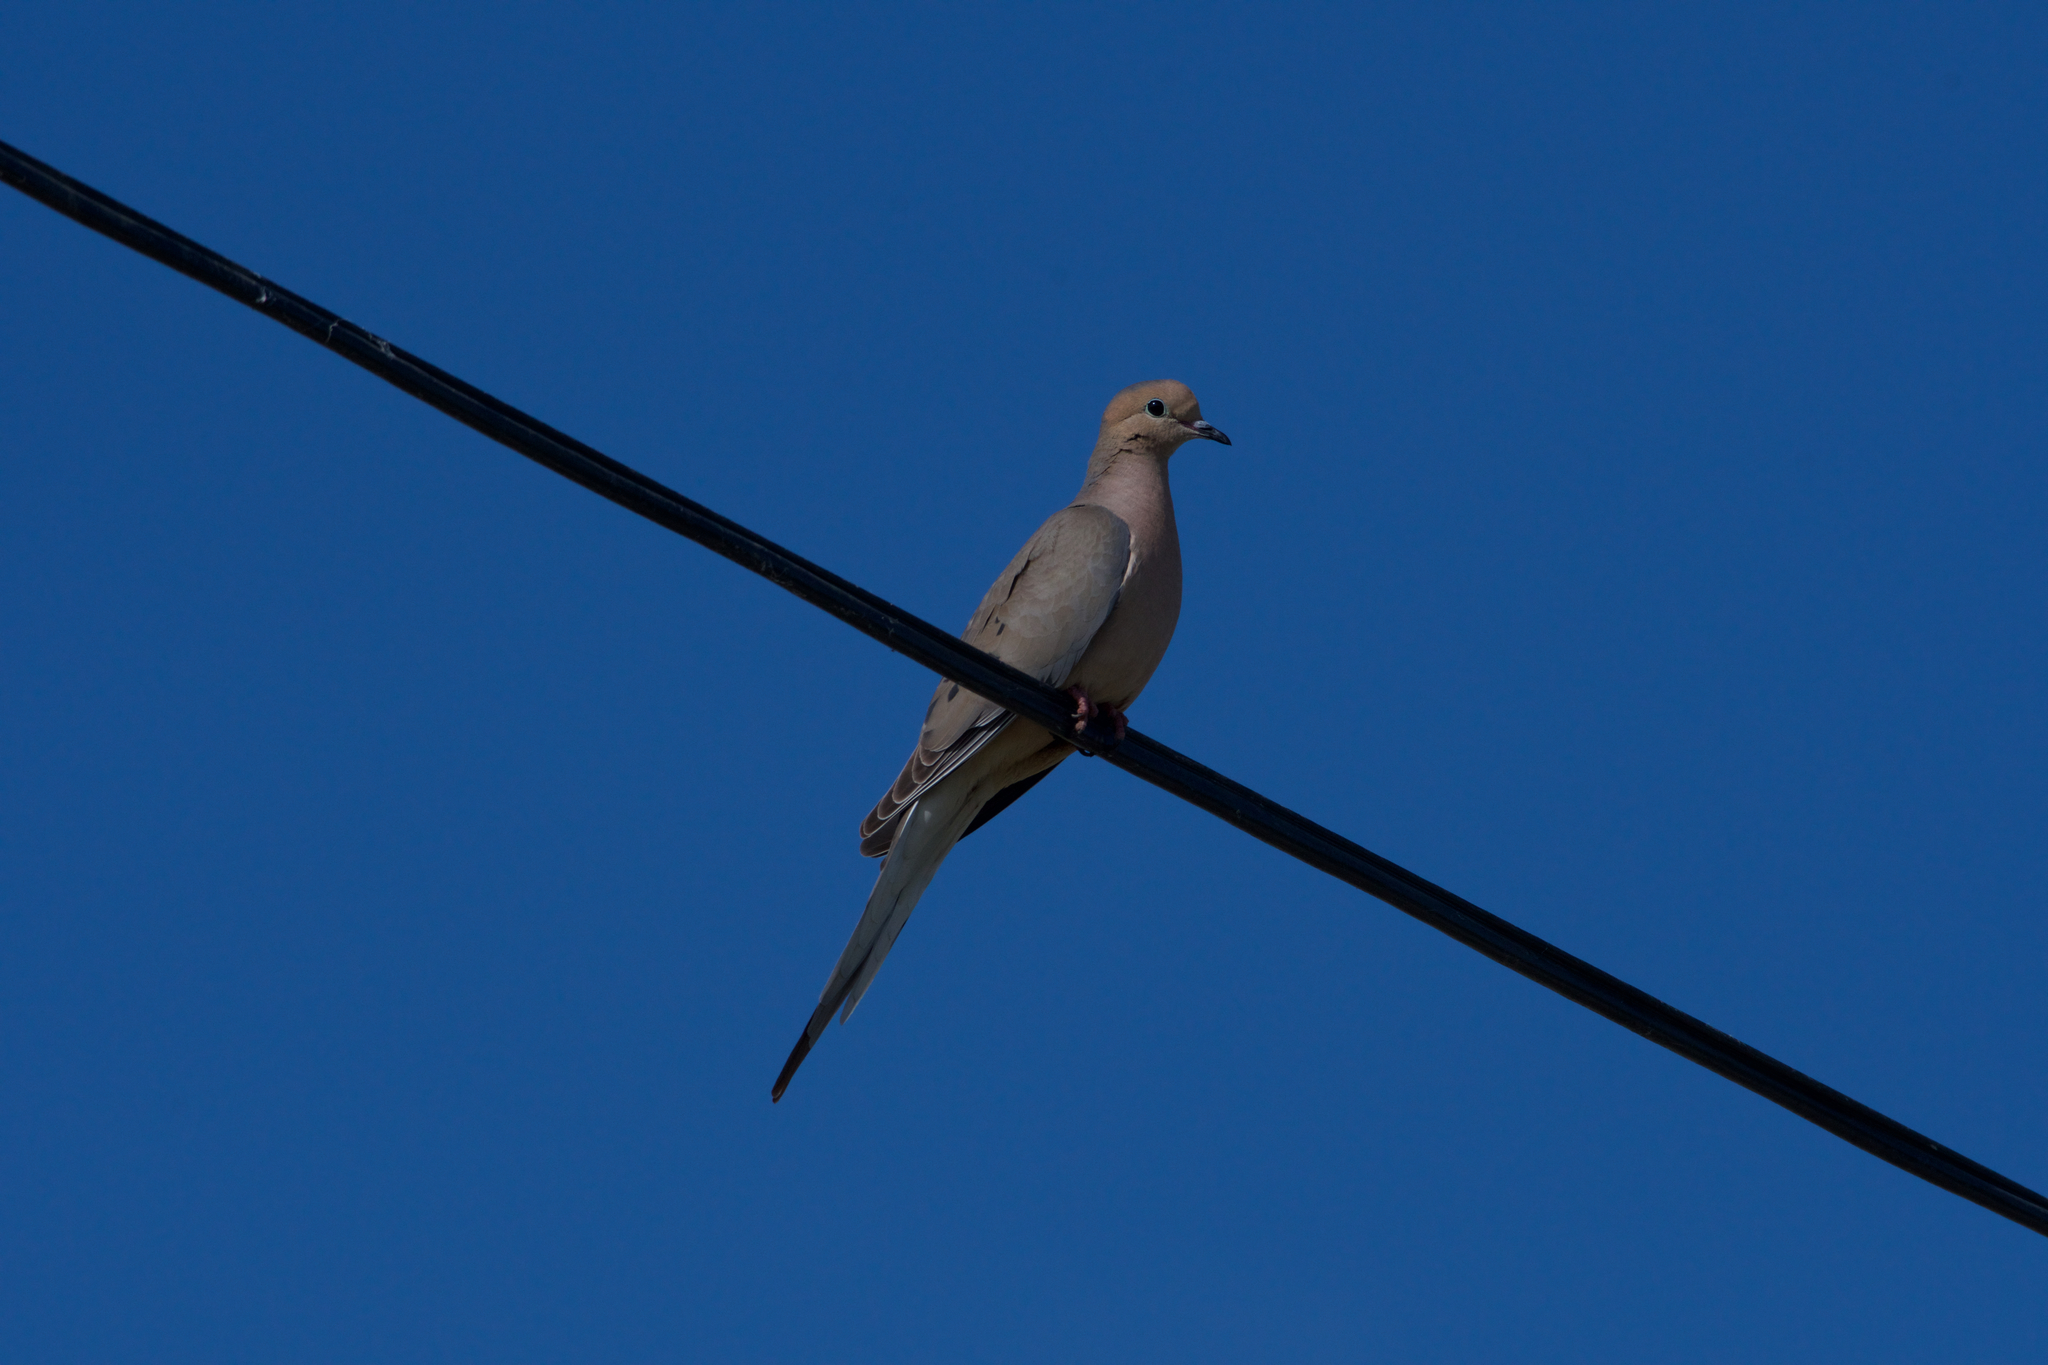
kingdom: Animalia
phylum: Chordata
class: Aves
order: Columbiformes
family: Columbidae
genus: Zenaida
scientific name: Zenaida macroura
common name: Mourning dove
